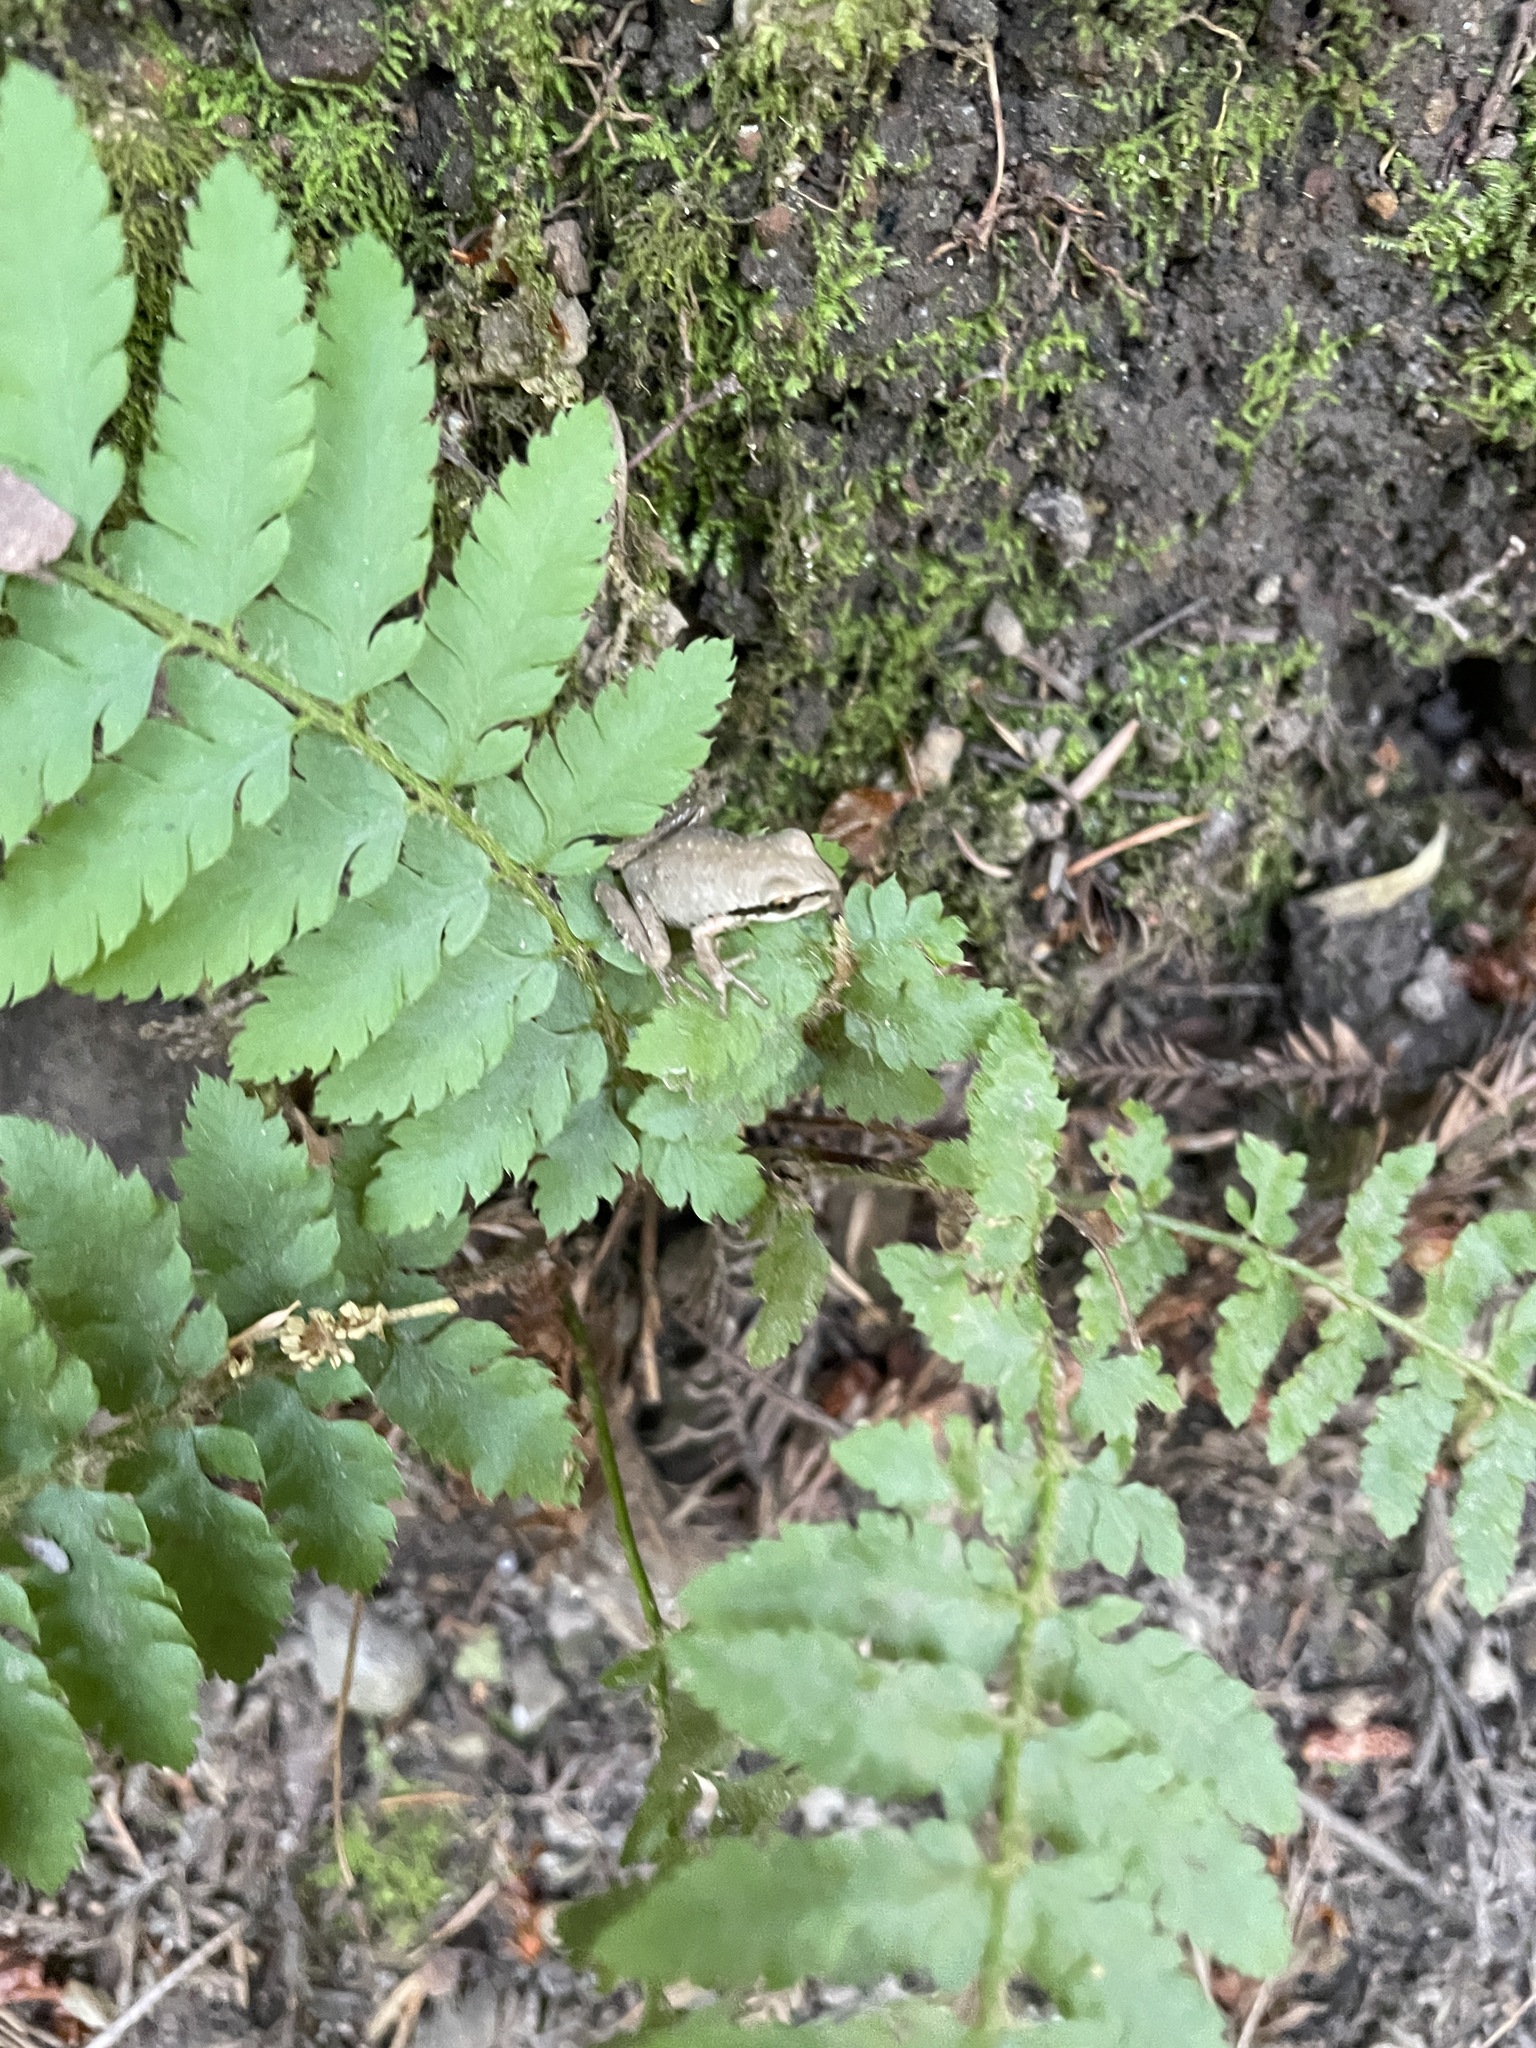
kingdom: Animalia
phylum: Chordata
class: Amphibia
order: Anura
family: Hylidae
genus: Pseudacris
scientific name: Pseudacris regilla
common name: Pacific chorus frog
